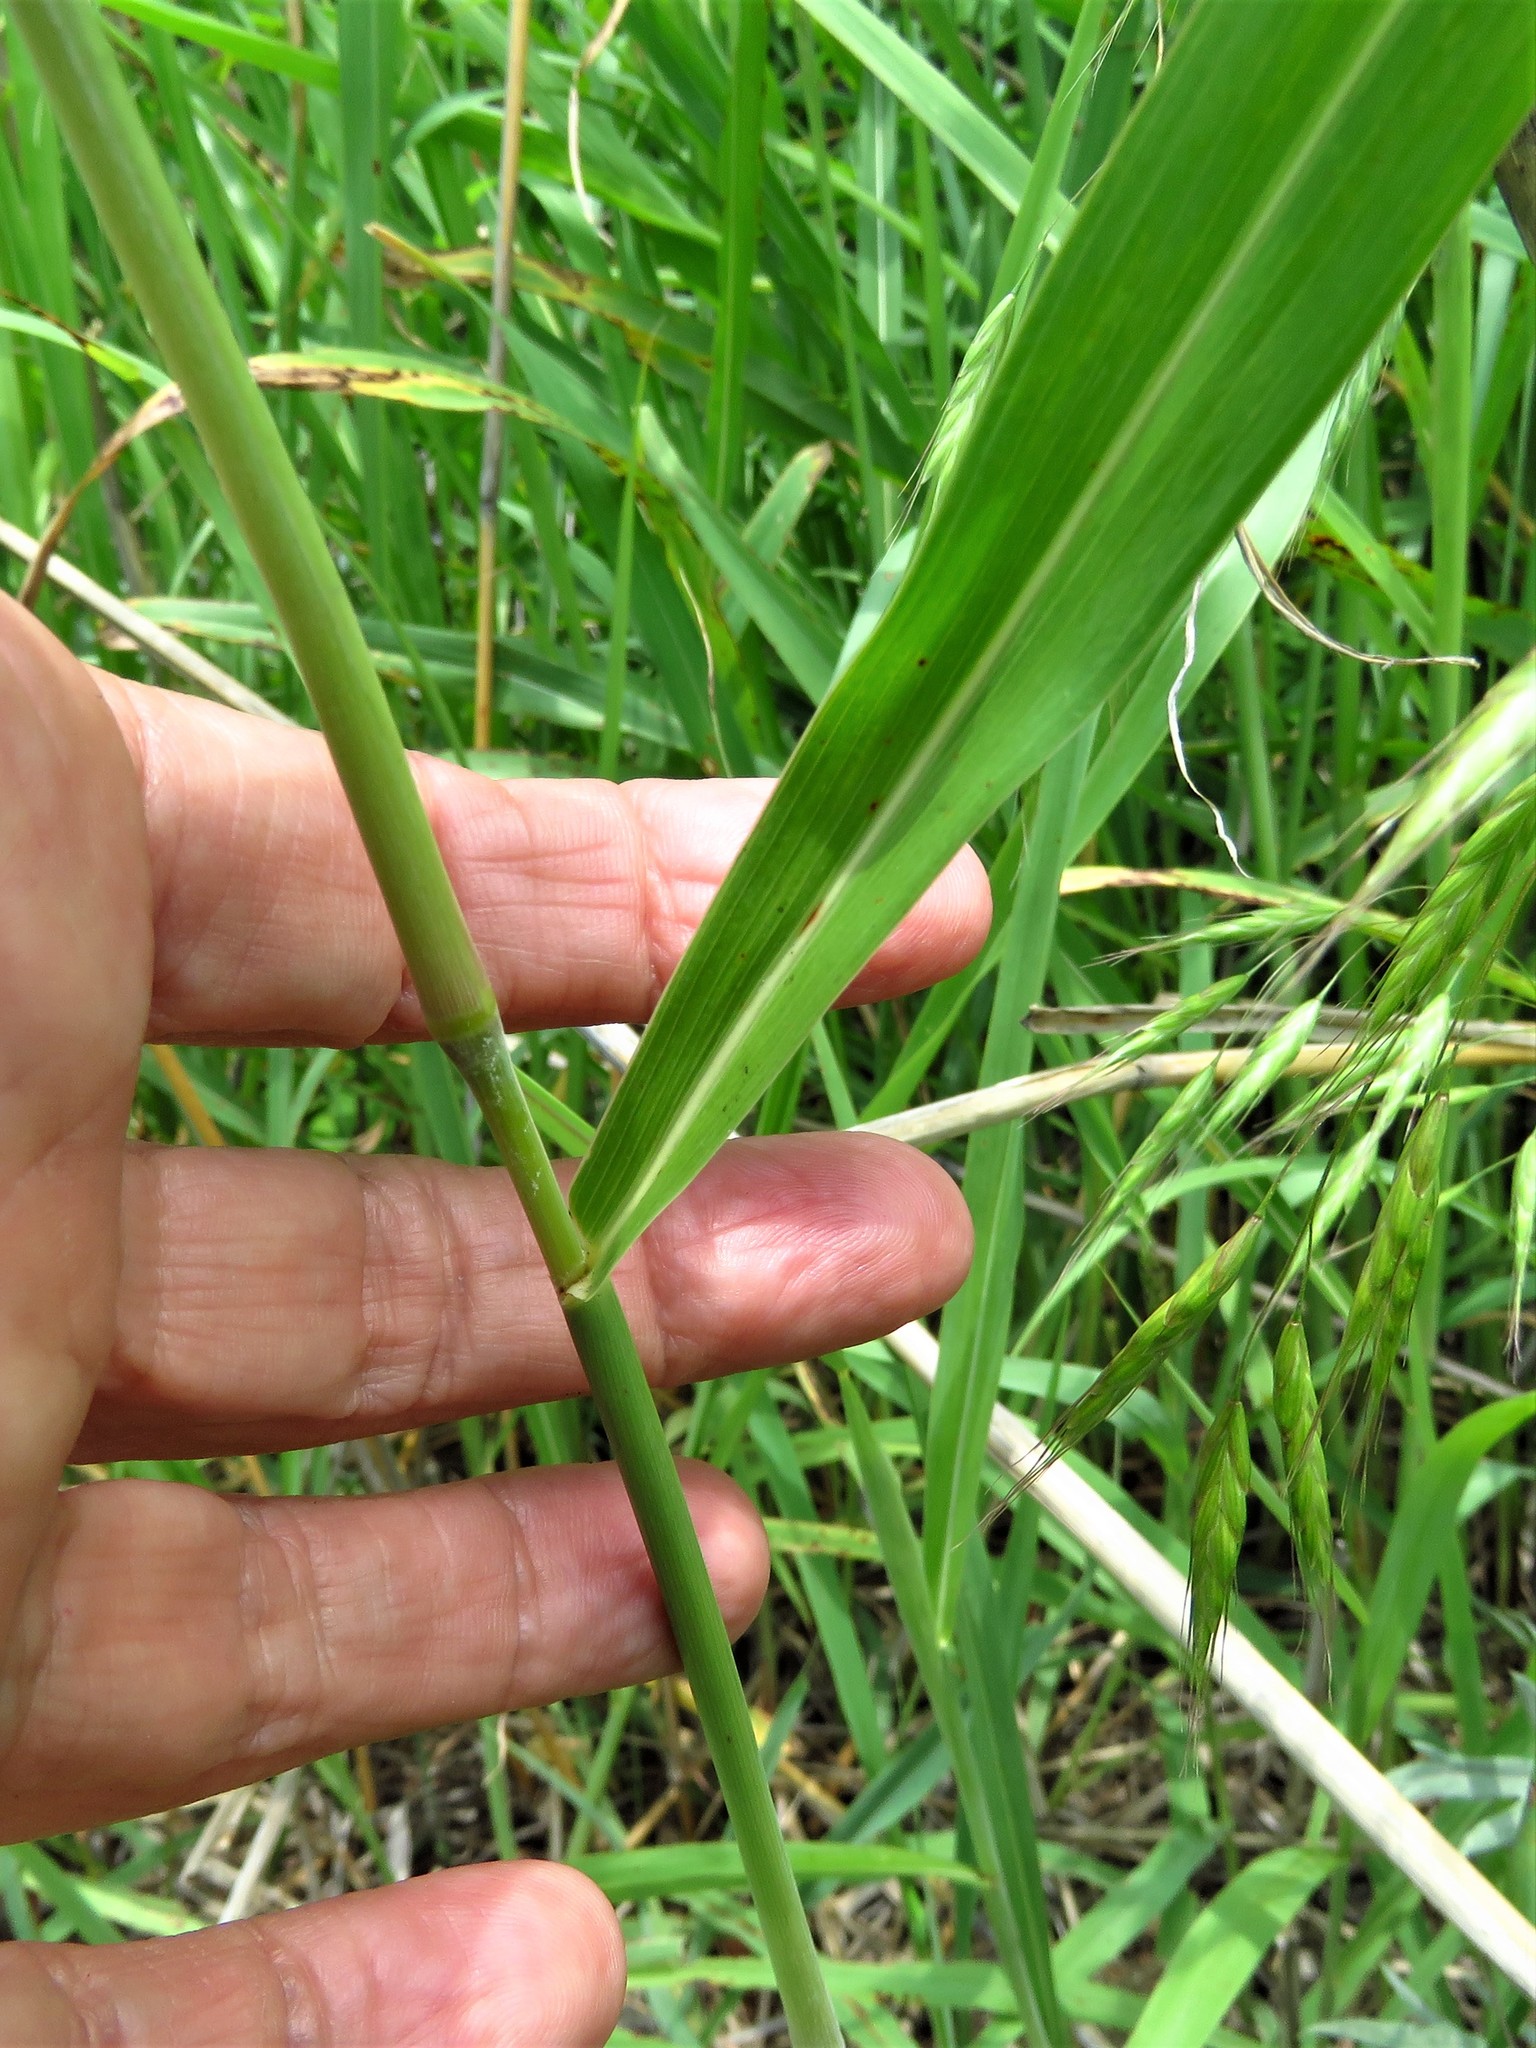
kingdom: Plantae
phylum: Tracheophyta
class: Liliopsida
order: Poales
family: Poaceae
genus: Sorghum
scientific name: Sorghum halepense
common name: Johnson-grass
